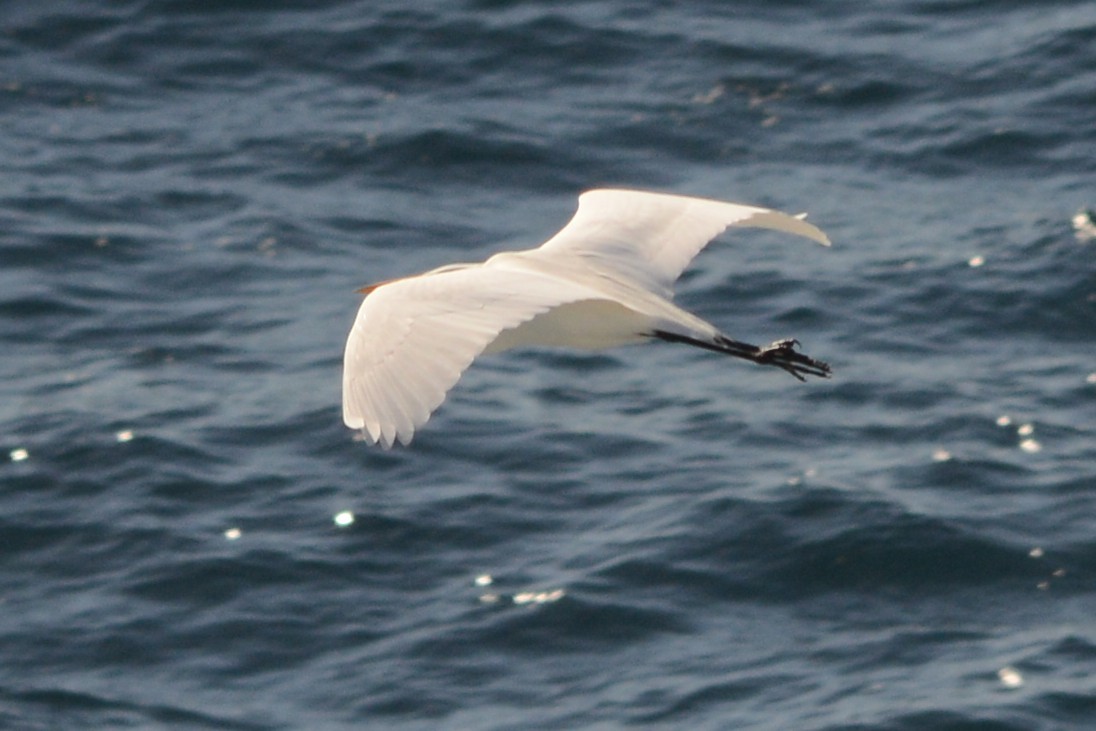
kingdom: Animalia
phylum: Chordata
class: Aves
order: Pelecaniformes
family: Ardeidae
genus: Ardea
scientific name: Ardea alba
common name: Great egret
